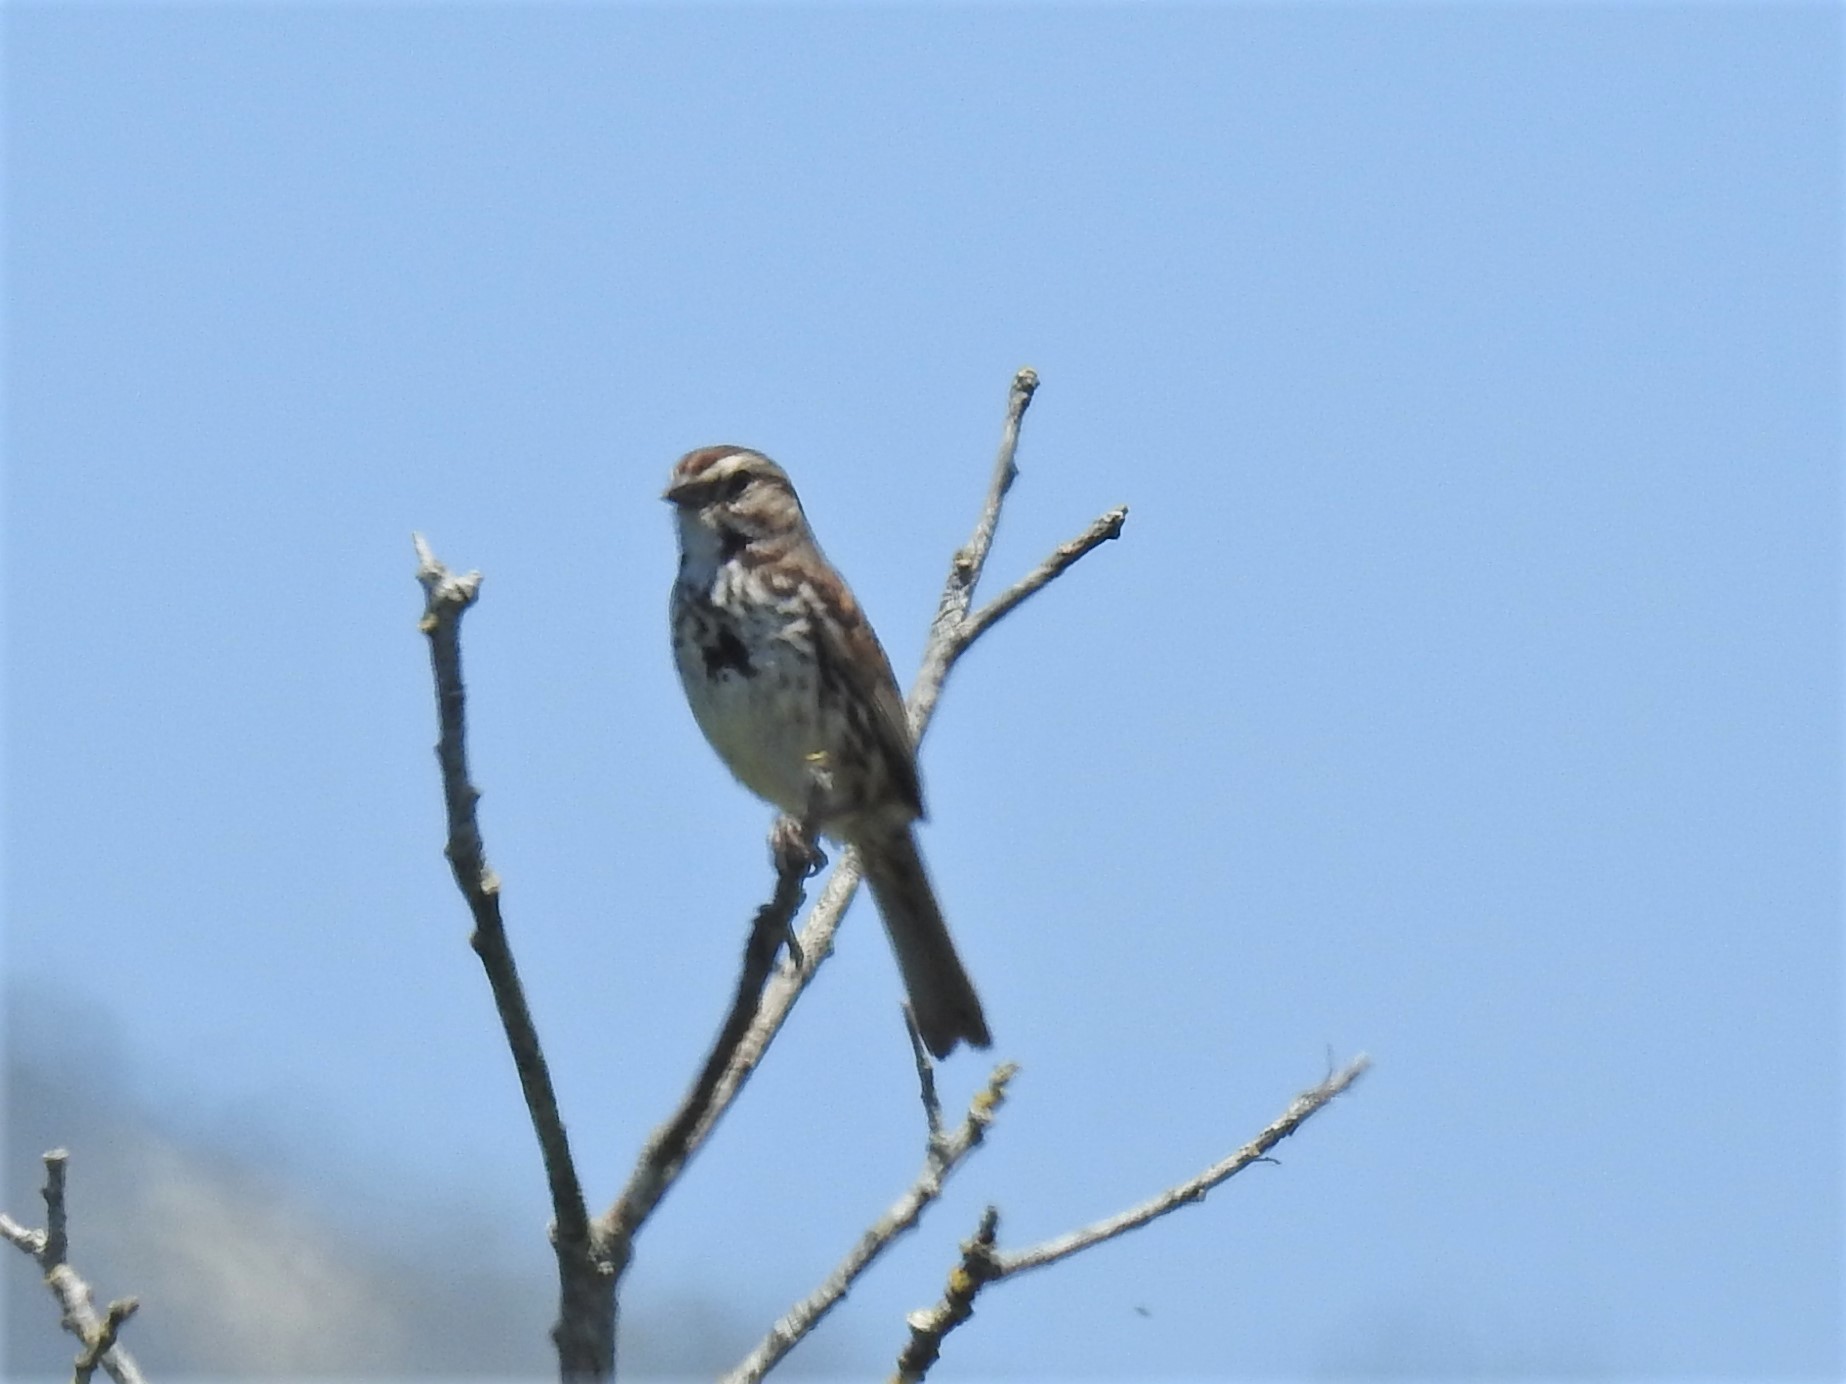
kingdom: Animalia
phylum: Chordata
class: Aves
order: Passeriformes
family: Passerellidae
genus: Melospiza
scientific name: Melospiza melodia
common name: Song sparrow
